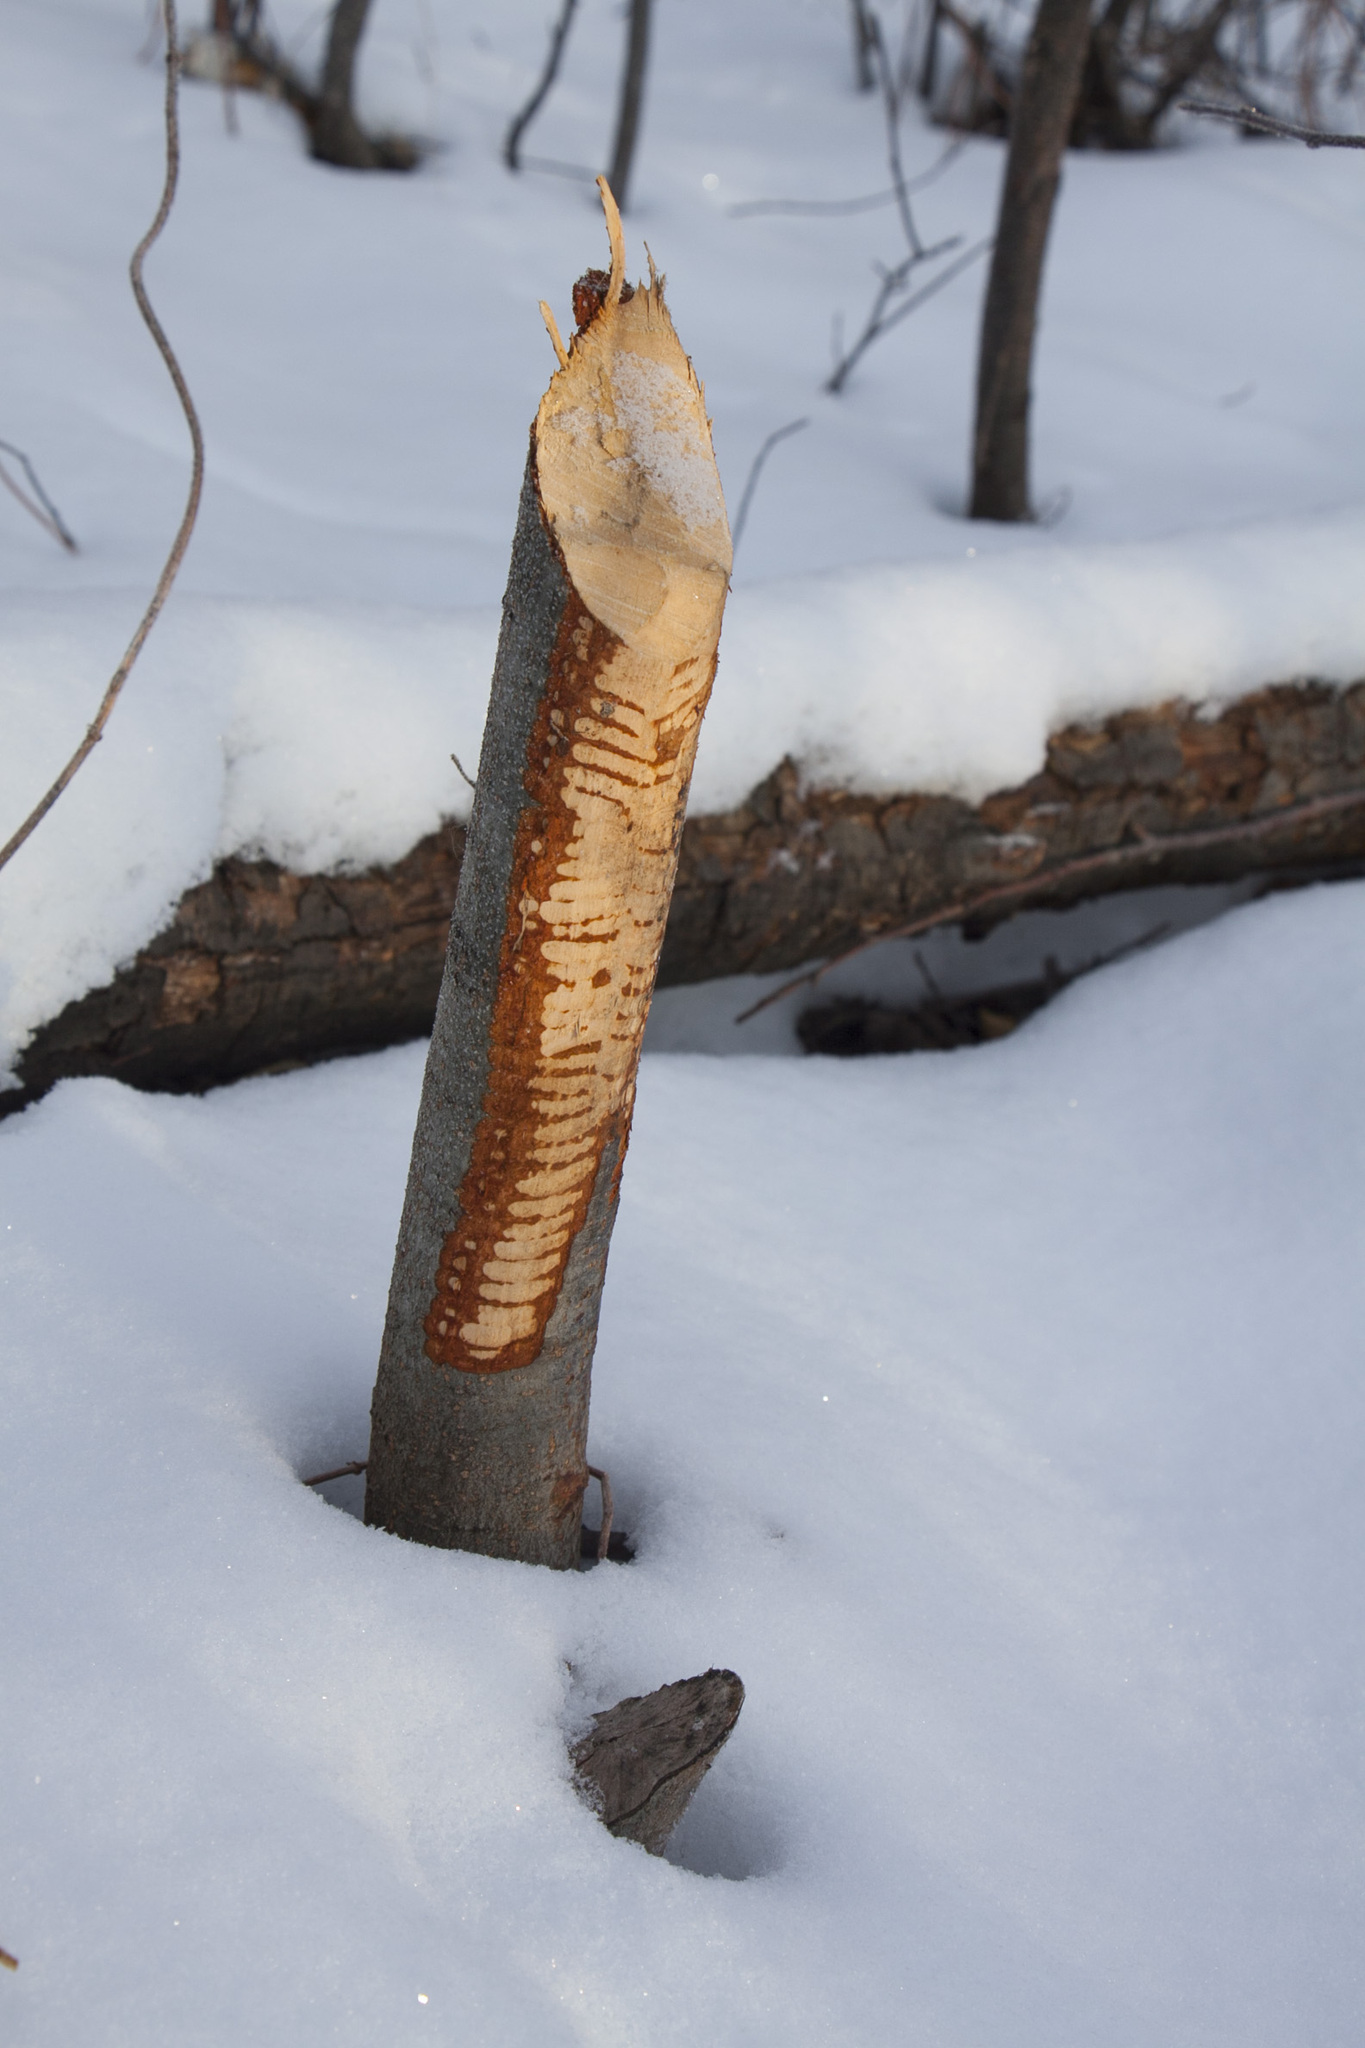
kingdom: Animalia
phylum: Chordata
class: Mammalia
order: Rodentia
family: Castoridae
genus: Castor
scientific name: Castor fiber
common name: Eurasian beaver
